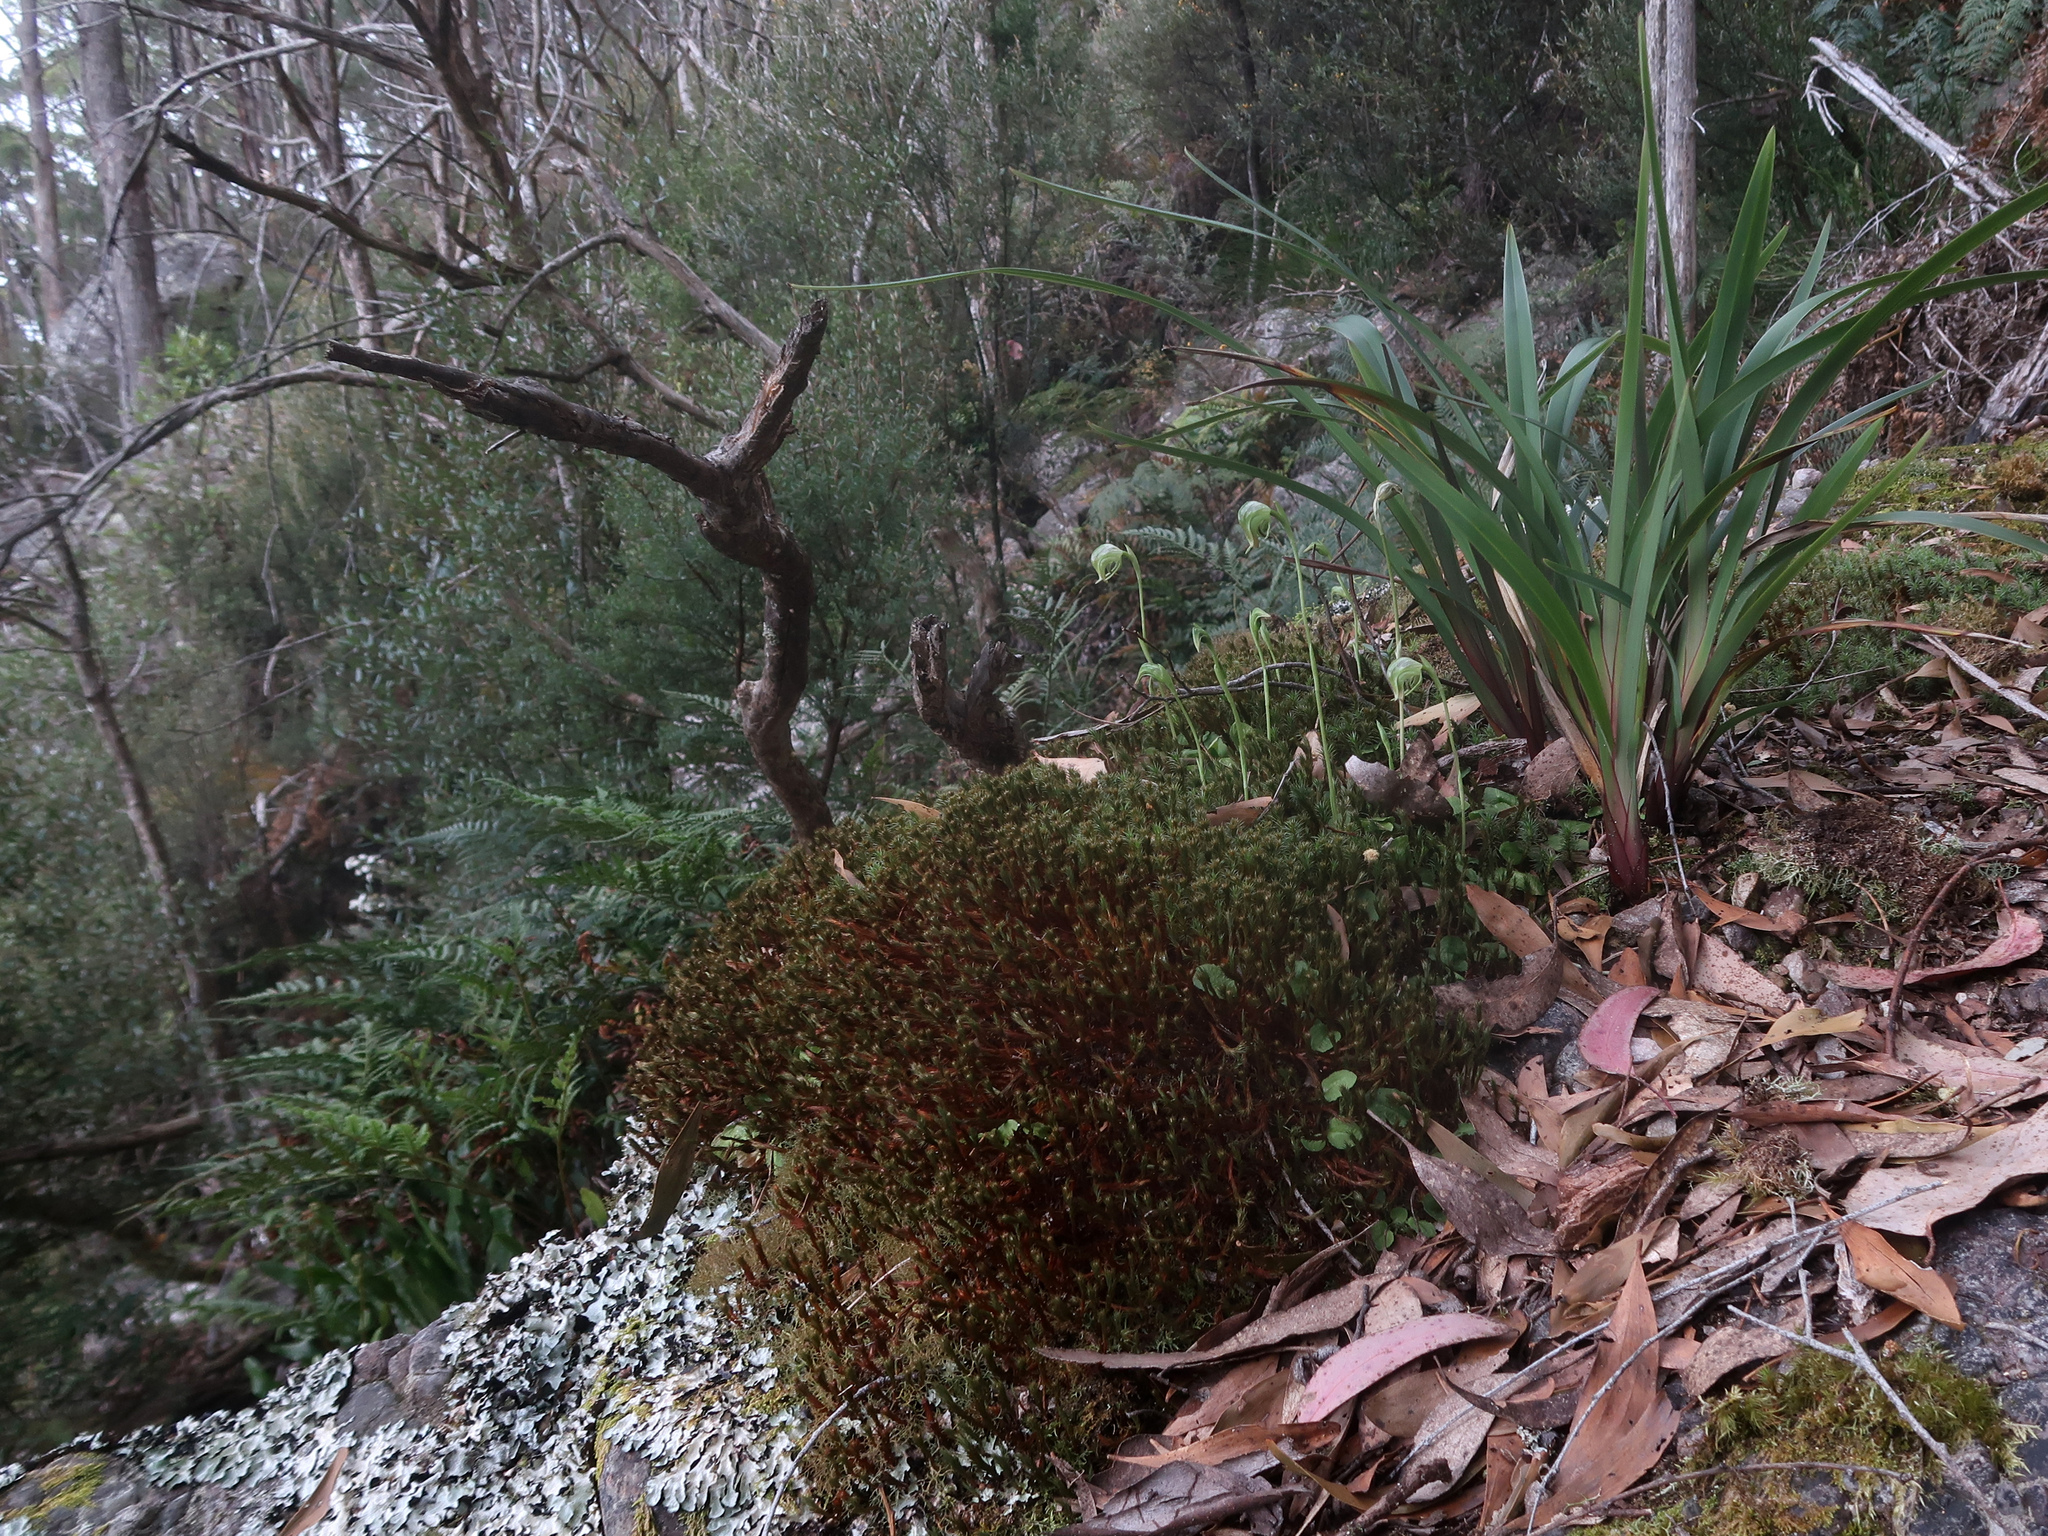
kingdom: Plantae
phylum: Tracheophyta
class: Liliopsida
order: Asparagales
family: Orchidaceae
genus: Pterostylis
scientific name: Pterostylis nutans
